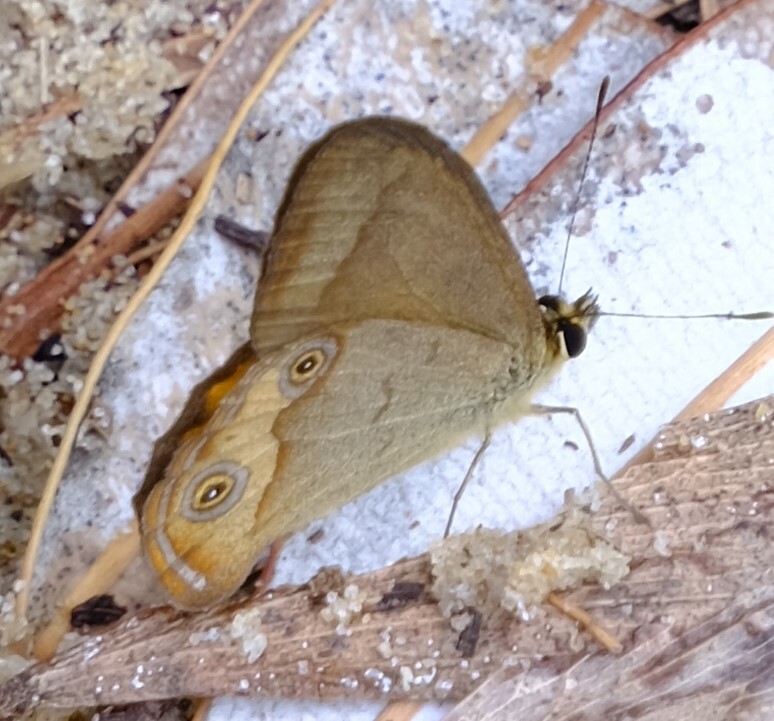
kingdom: Animalia
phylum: Arthropoda
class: Insecta
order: Lepidoptera
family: Nymphalidae
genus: Hypocysta
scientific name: Hypocysta metirius
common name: Brown ringlet
